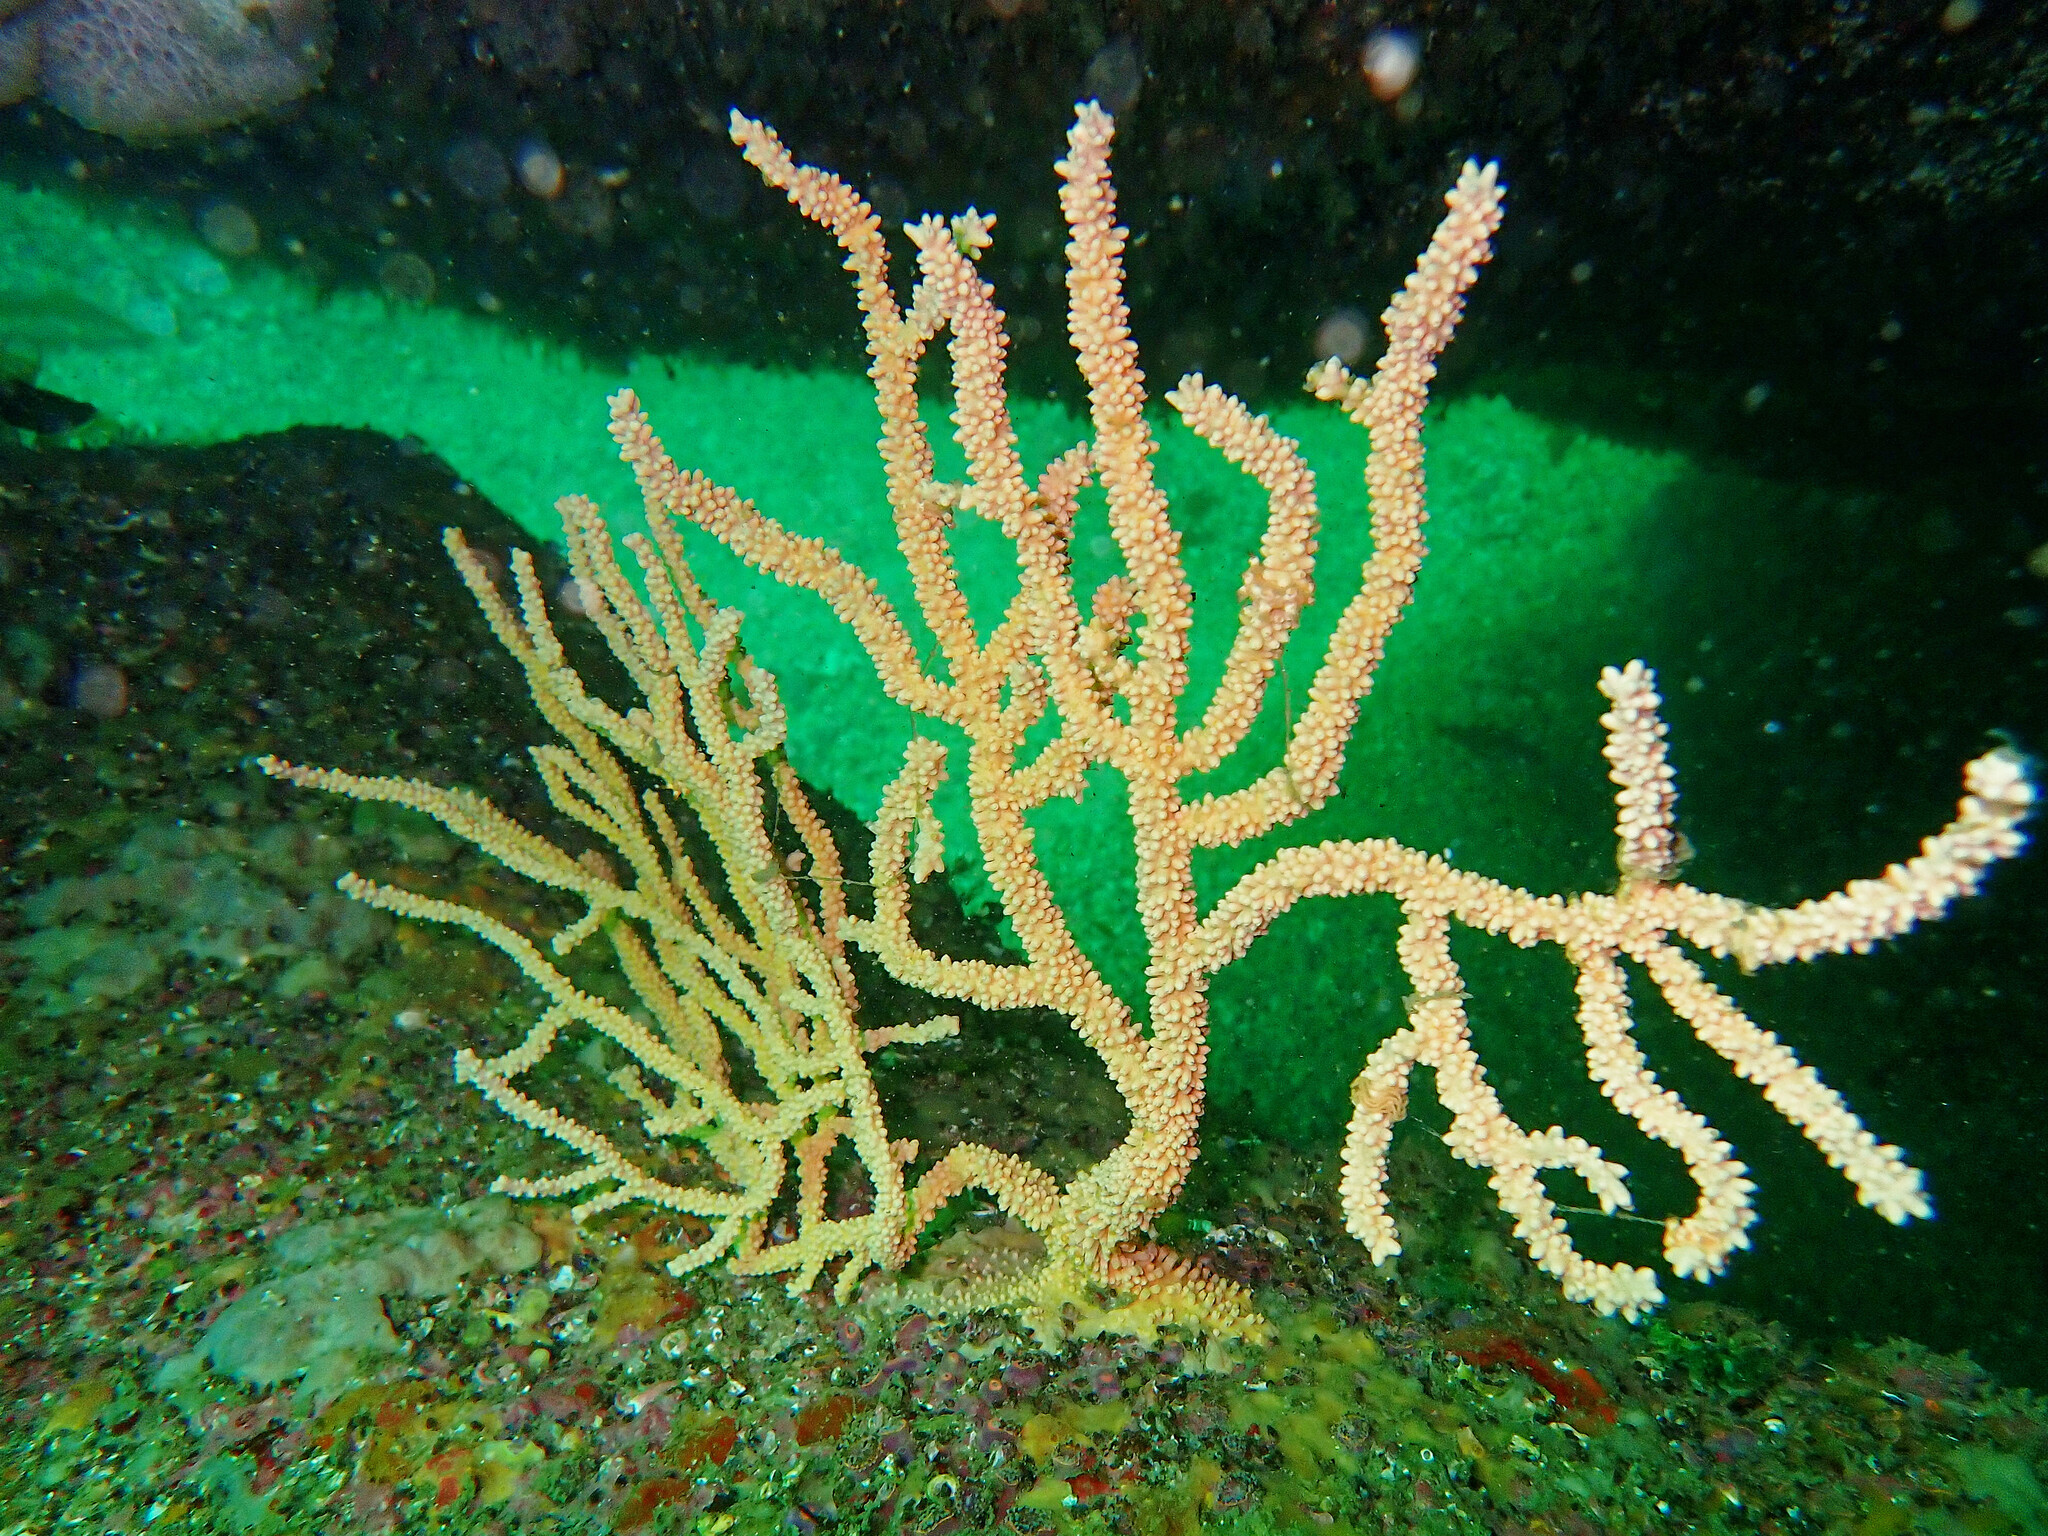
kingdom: Animalia
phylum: Cnidaria
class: Anthozoa
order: Malacalcyonacea
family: Eunicellidae
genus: Eunicella
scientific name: Eunicella verrucosa
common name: Pink sea-fan
